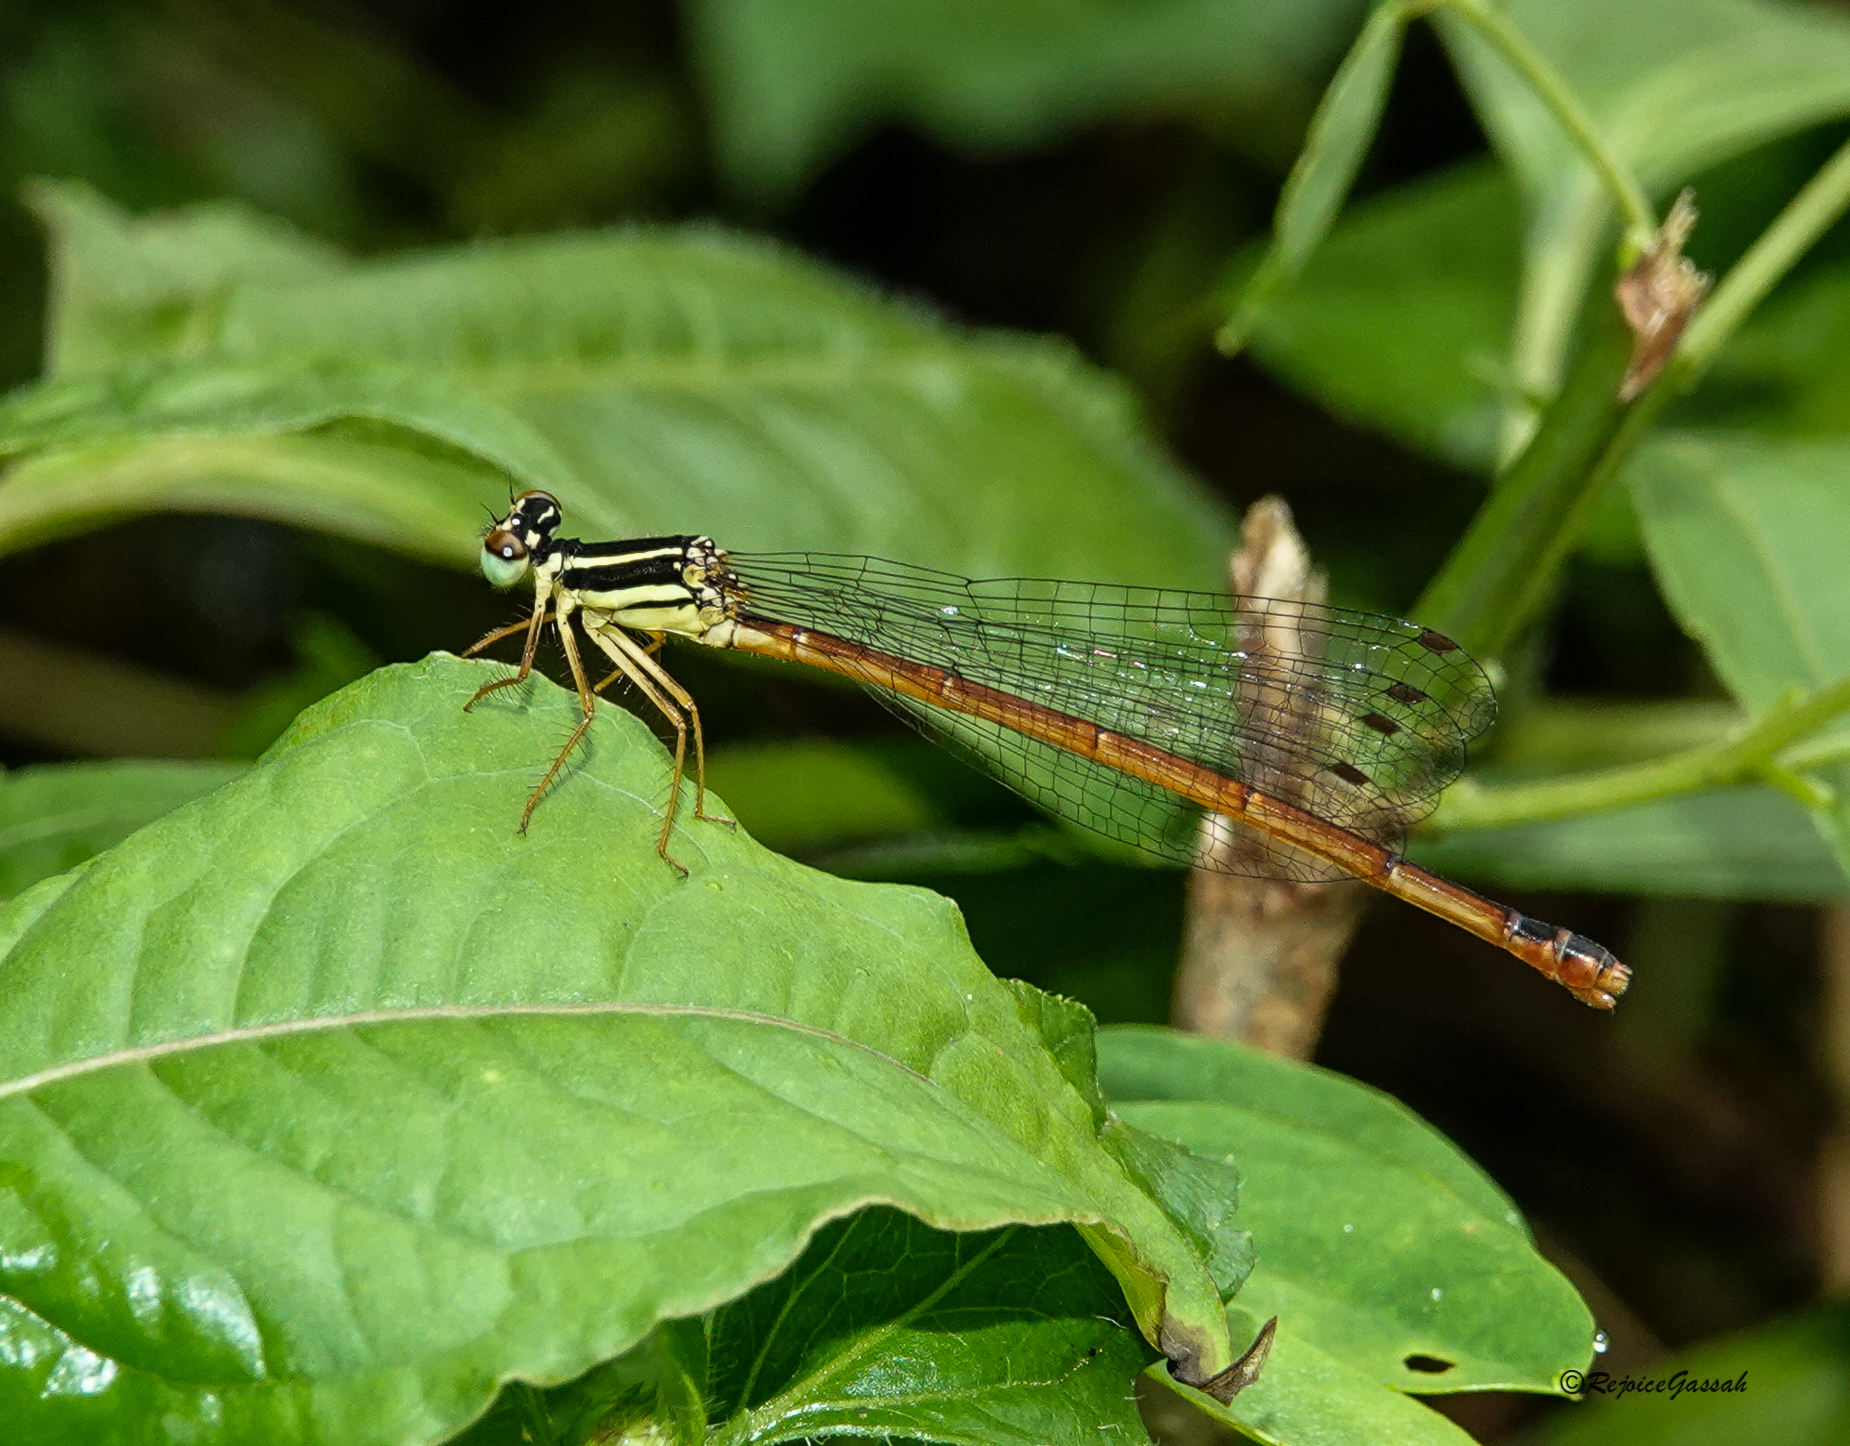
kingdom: Animalia
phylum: Arthropoda
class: Insecta
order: Odonata
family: Platycnemididae
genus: Calicnemia
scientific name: Calicnemia eximia
